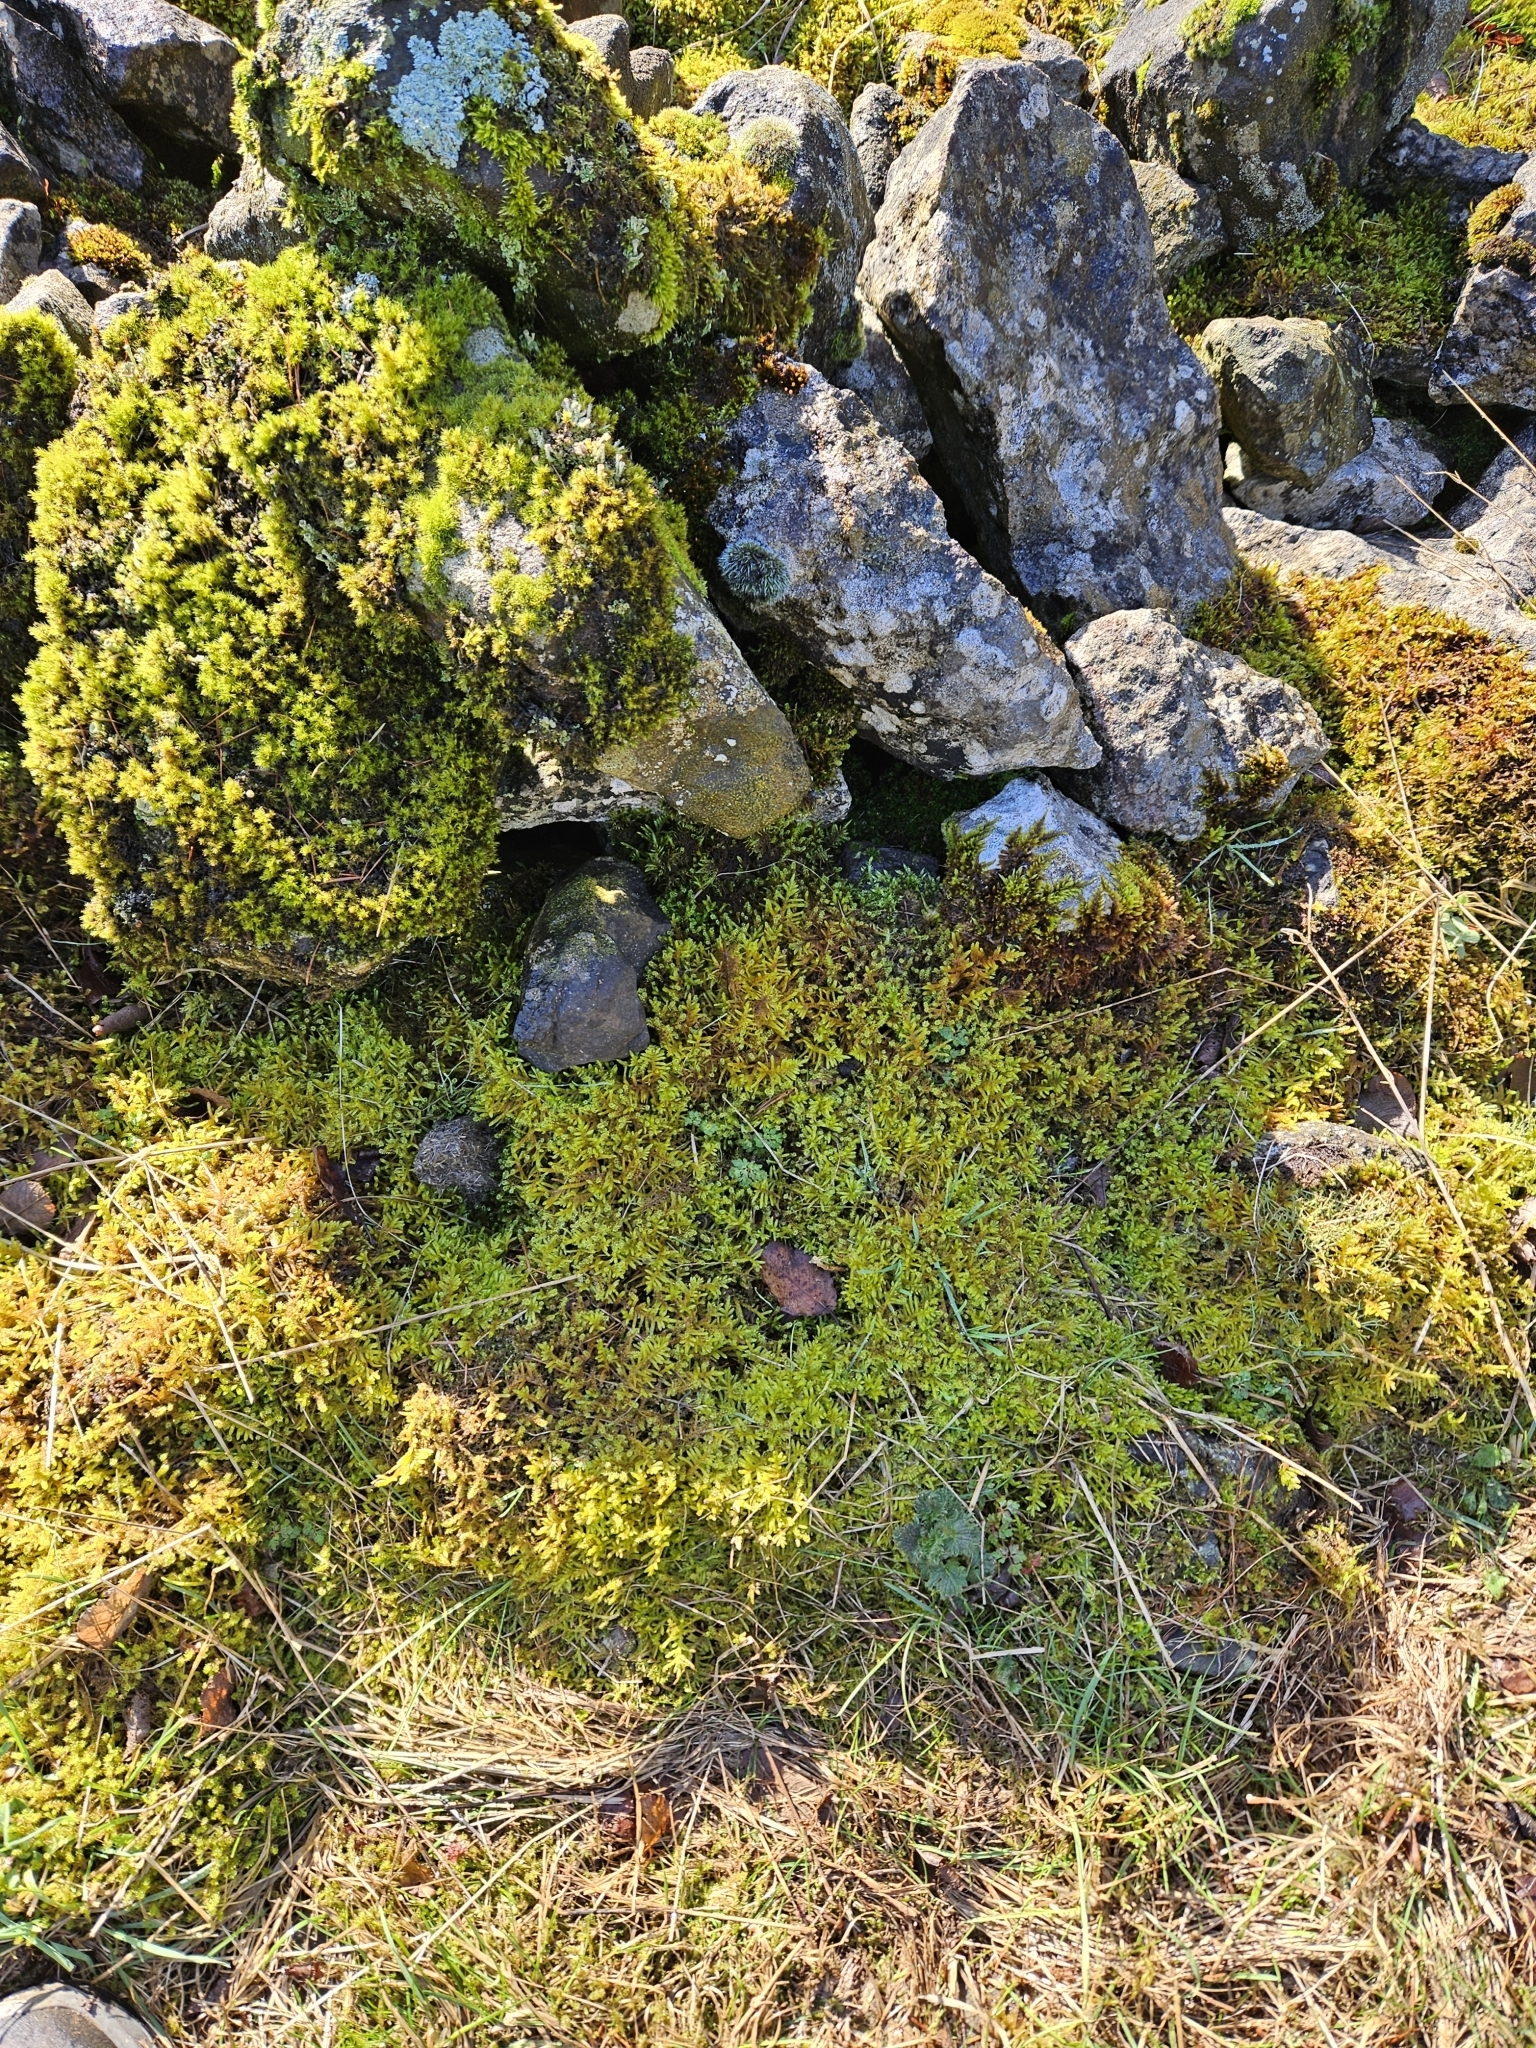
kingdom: Plantae
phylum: Bryophyta
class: Bryopsida
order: Hypnales
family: Brachytheciaceae
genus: Pseudoscleropodium
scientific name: Pseudoscleropodium purum
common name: Neat feather-moss
